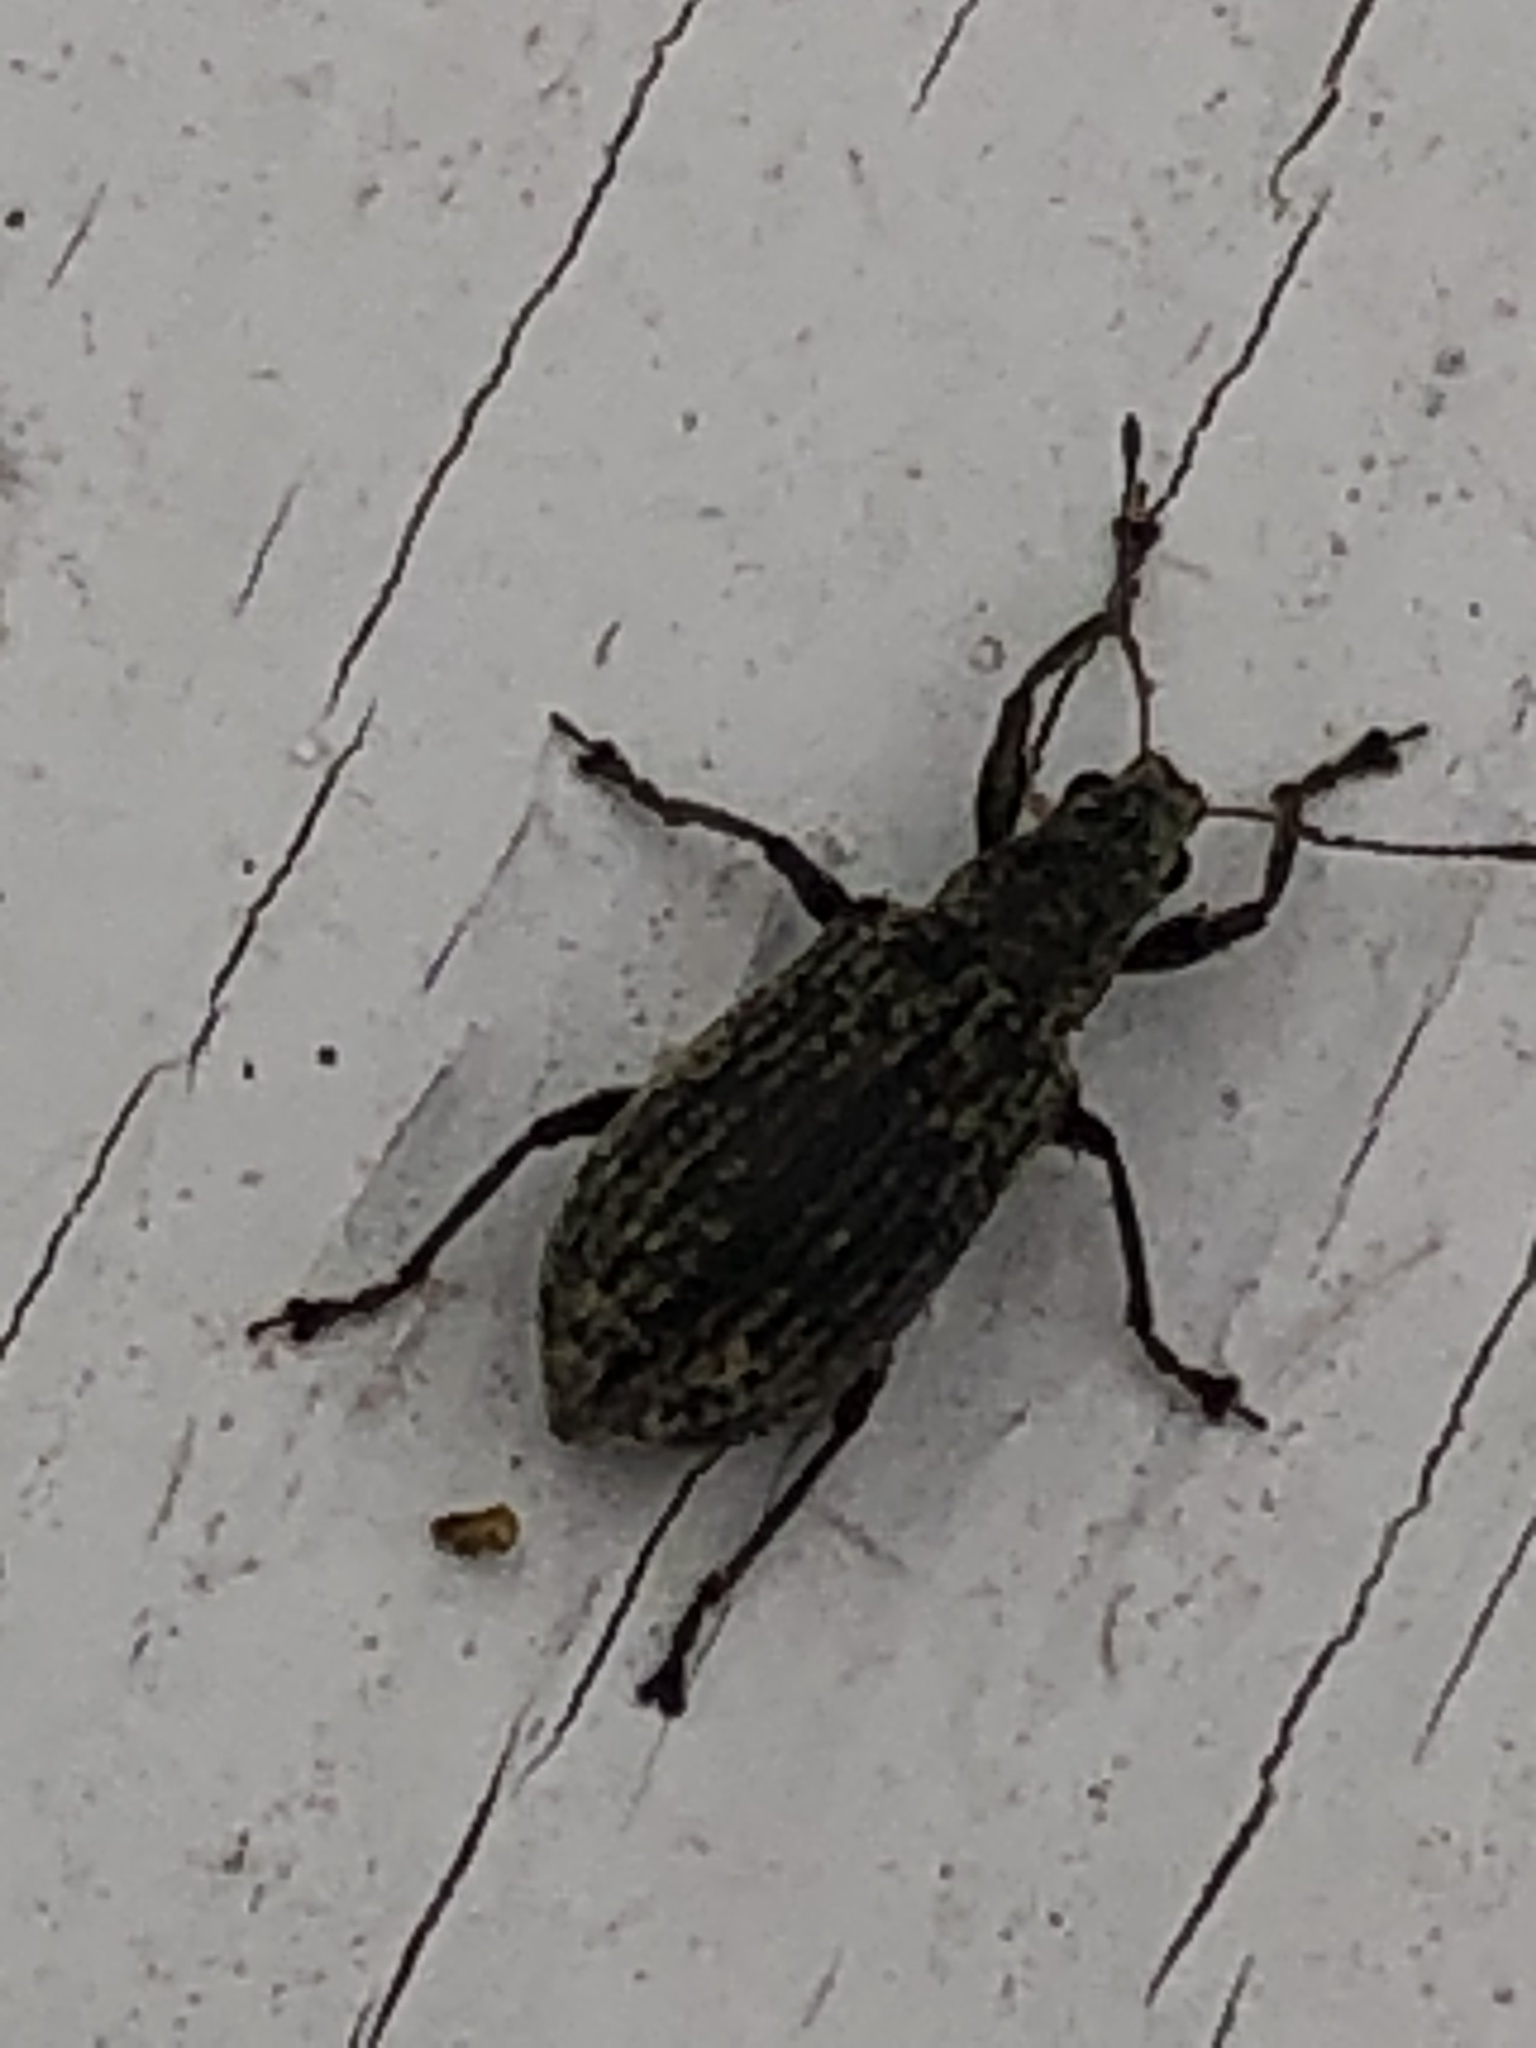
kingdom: Animalia
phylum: Arthropoda
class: Insecta
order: Coleoptera
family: Curculionidae
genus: Polydrusus
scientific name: Polydrusus cervinus
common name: Weevil
